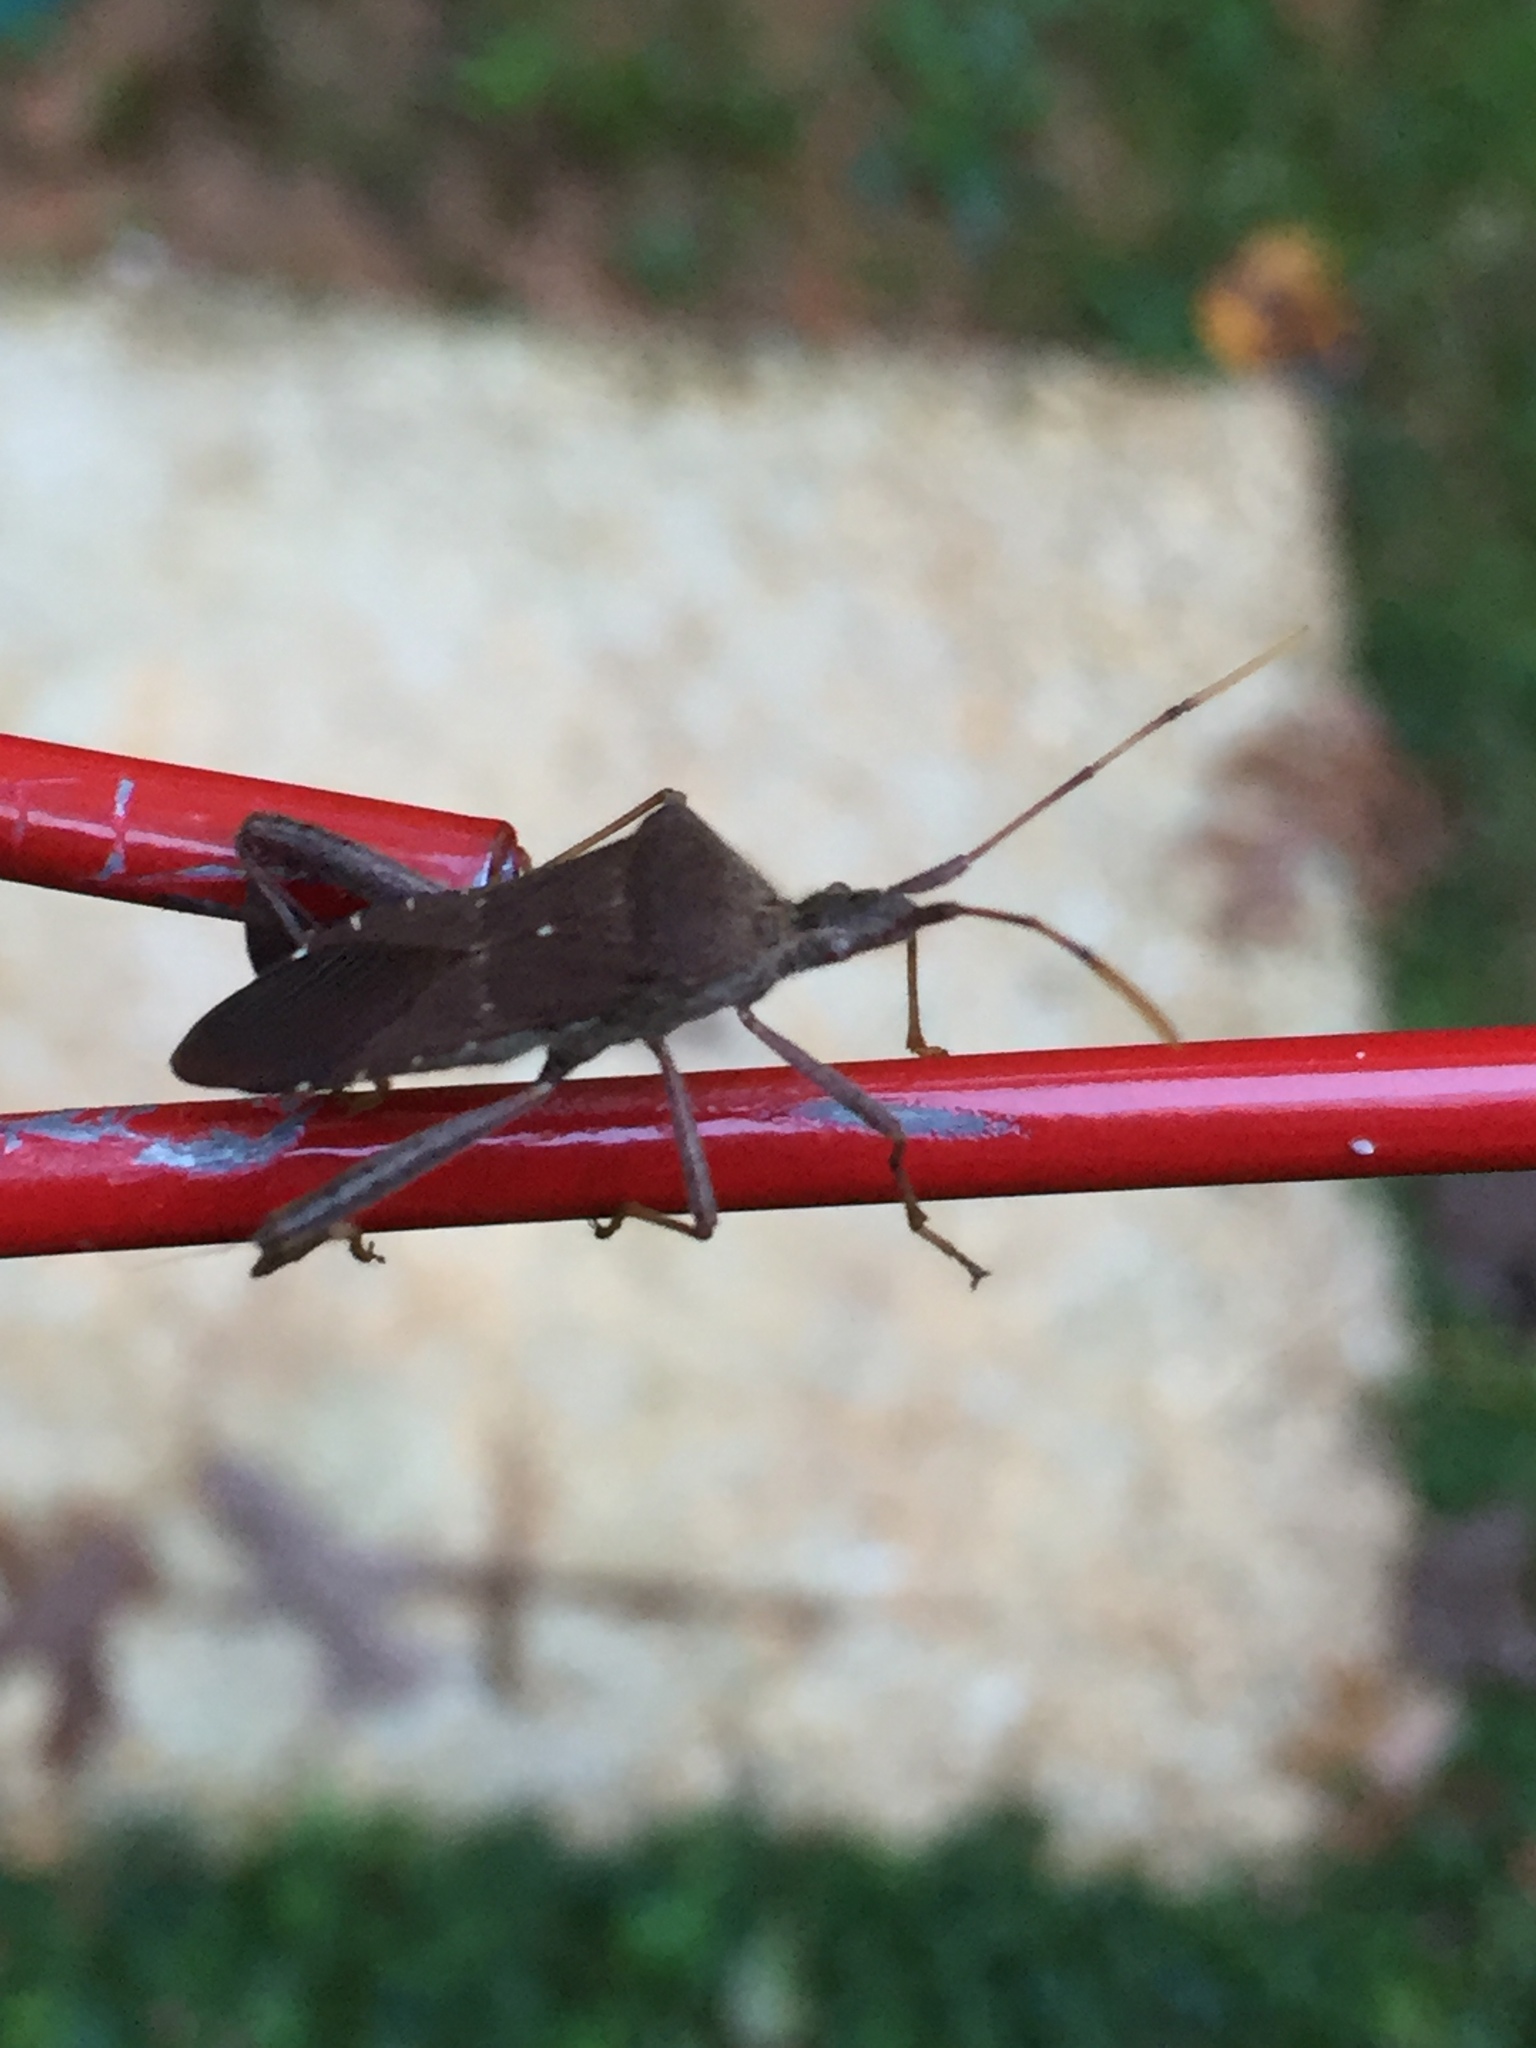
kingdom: Animalia
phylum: Arthropoda
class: Insecta
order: Hemiptera
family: Coreidae
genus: Leptoglossus
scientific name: Leptoglossus oppositus
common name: Northern leaf-footed bug
